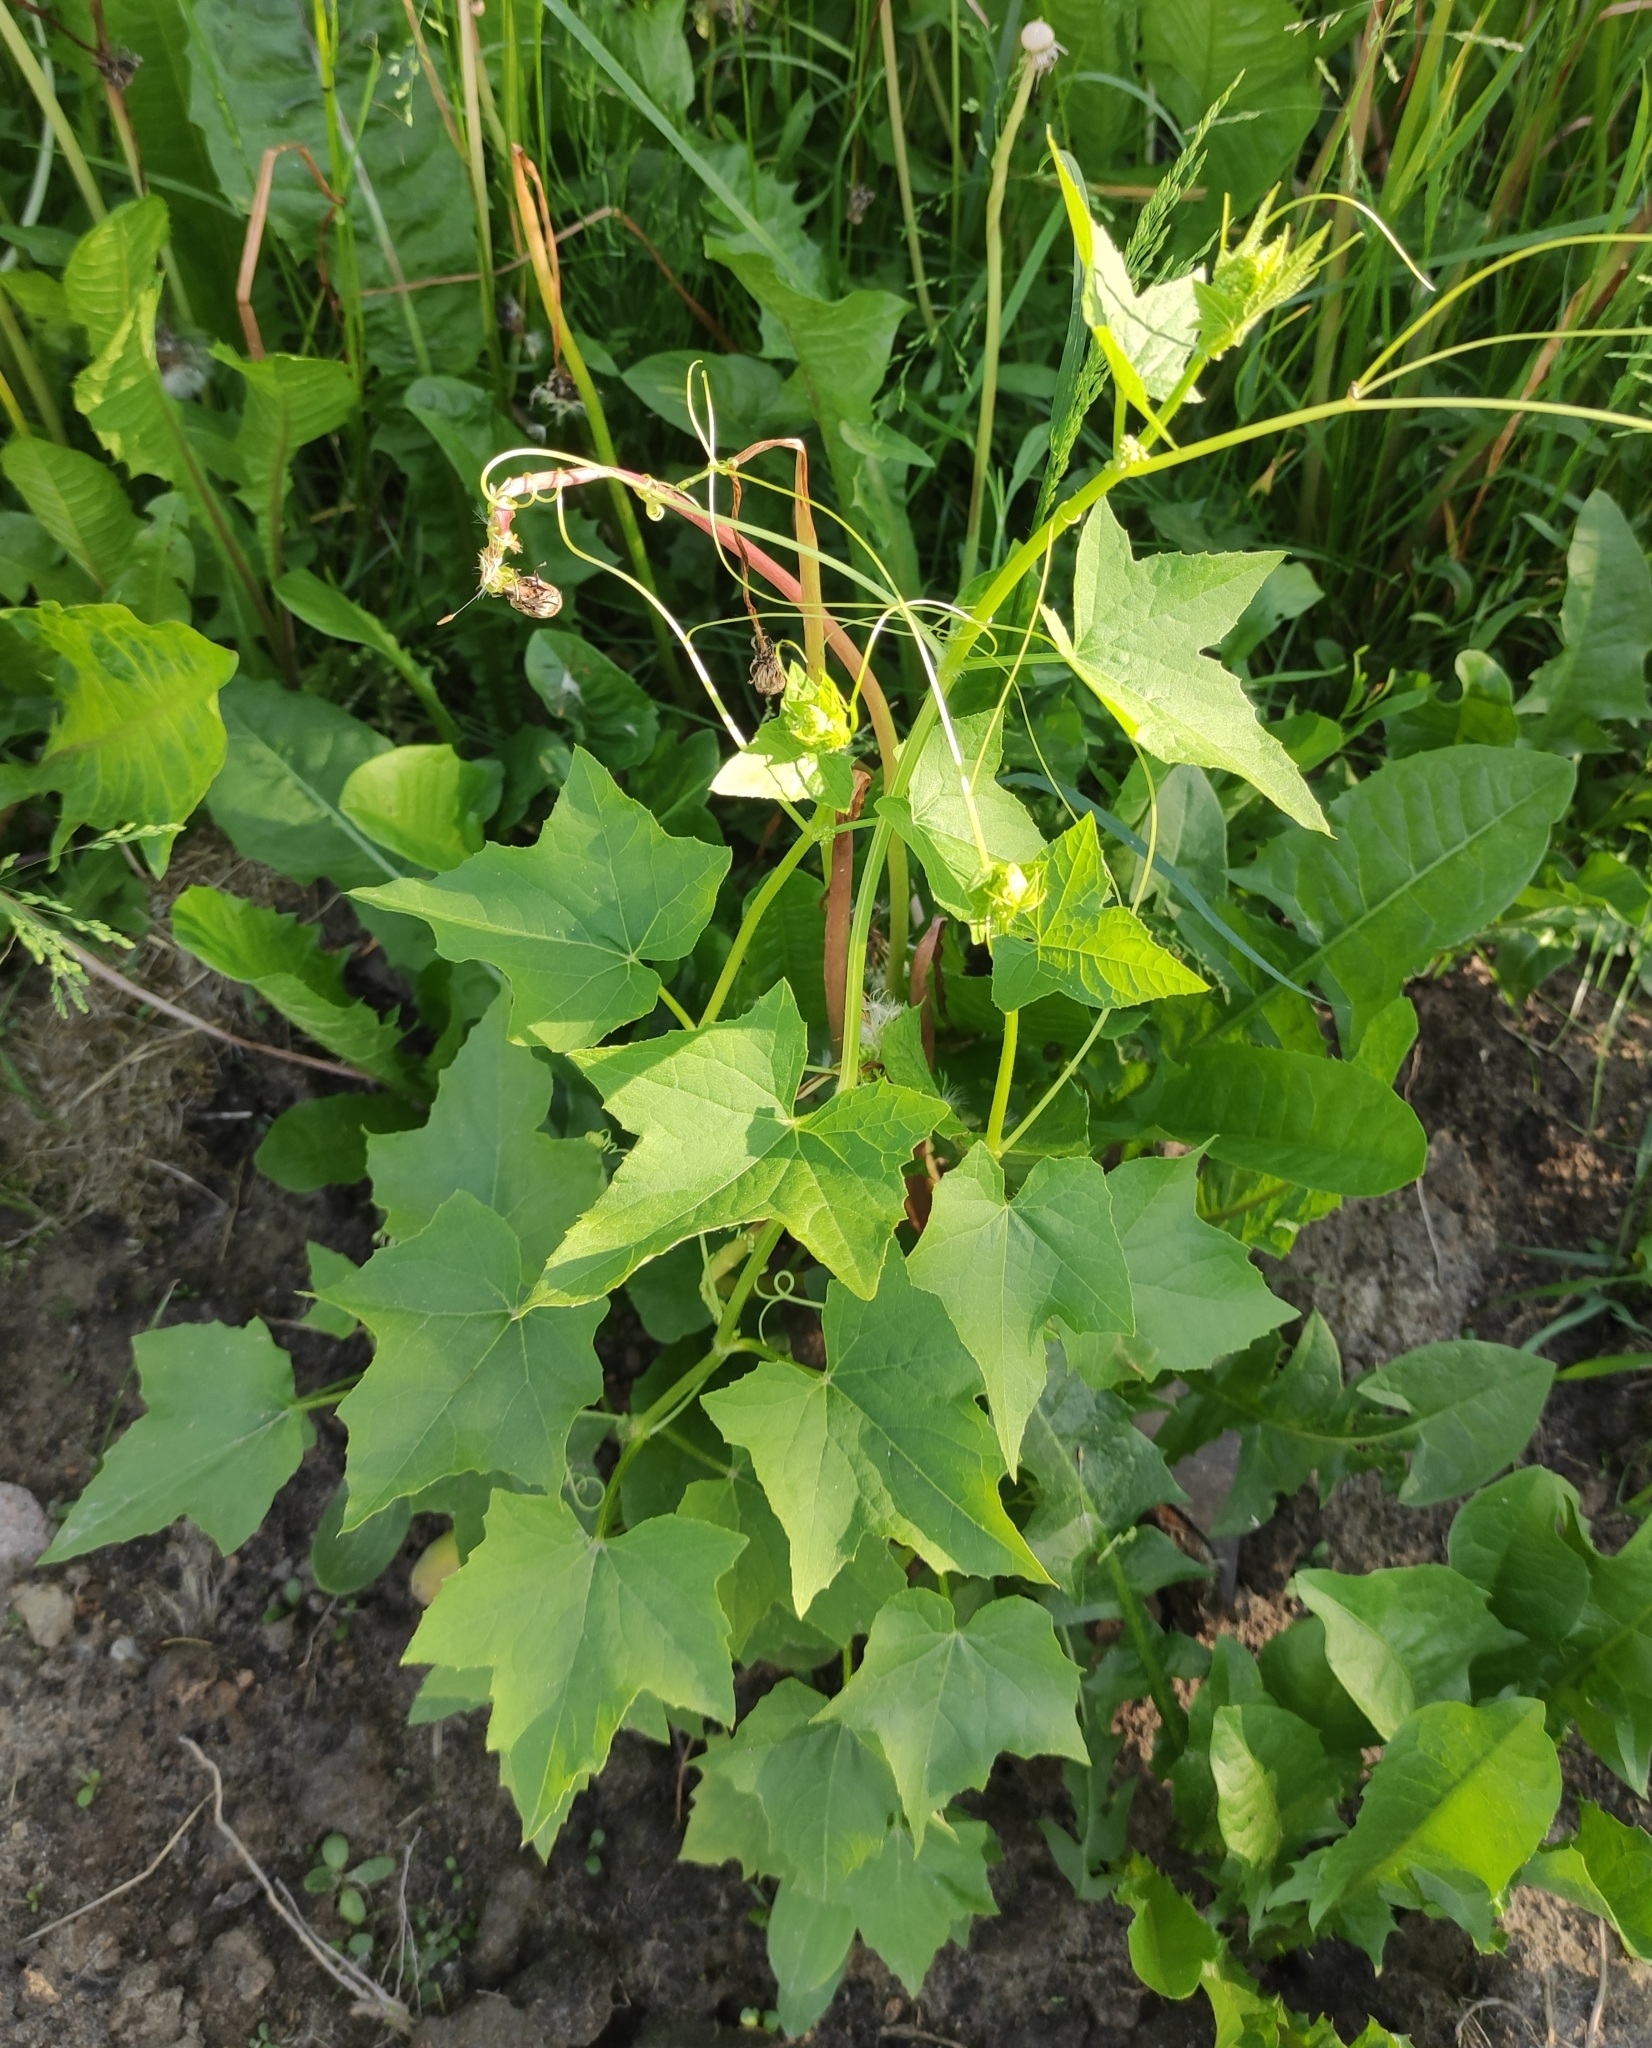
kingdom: Plantae
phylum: Tracheophyta
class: Magnoliopsida
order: Cucurbitales
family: Cucurbitaceae
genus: Echinocystis
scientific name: Echinocystis lobata
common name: Wild cucumber
